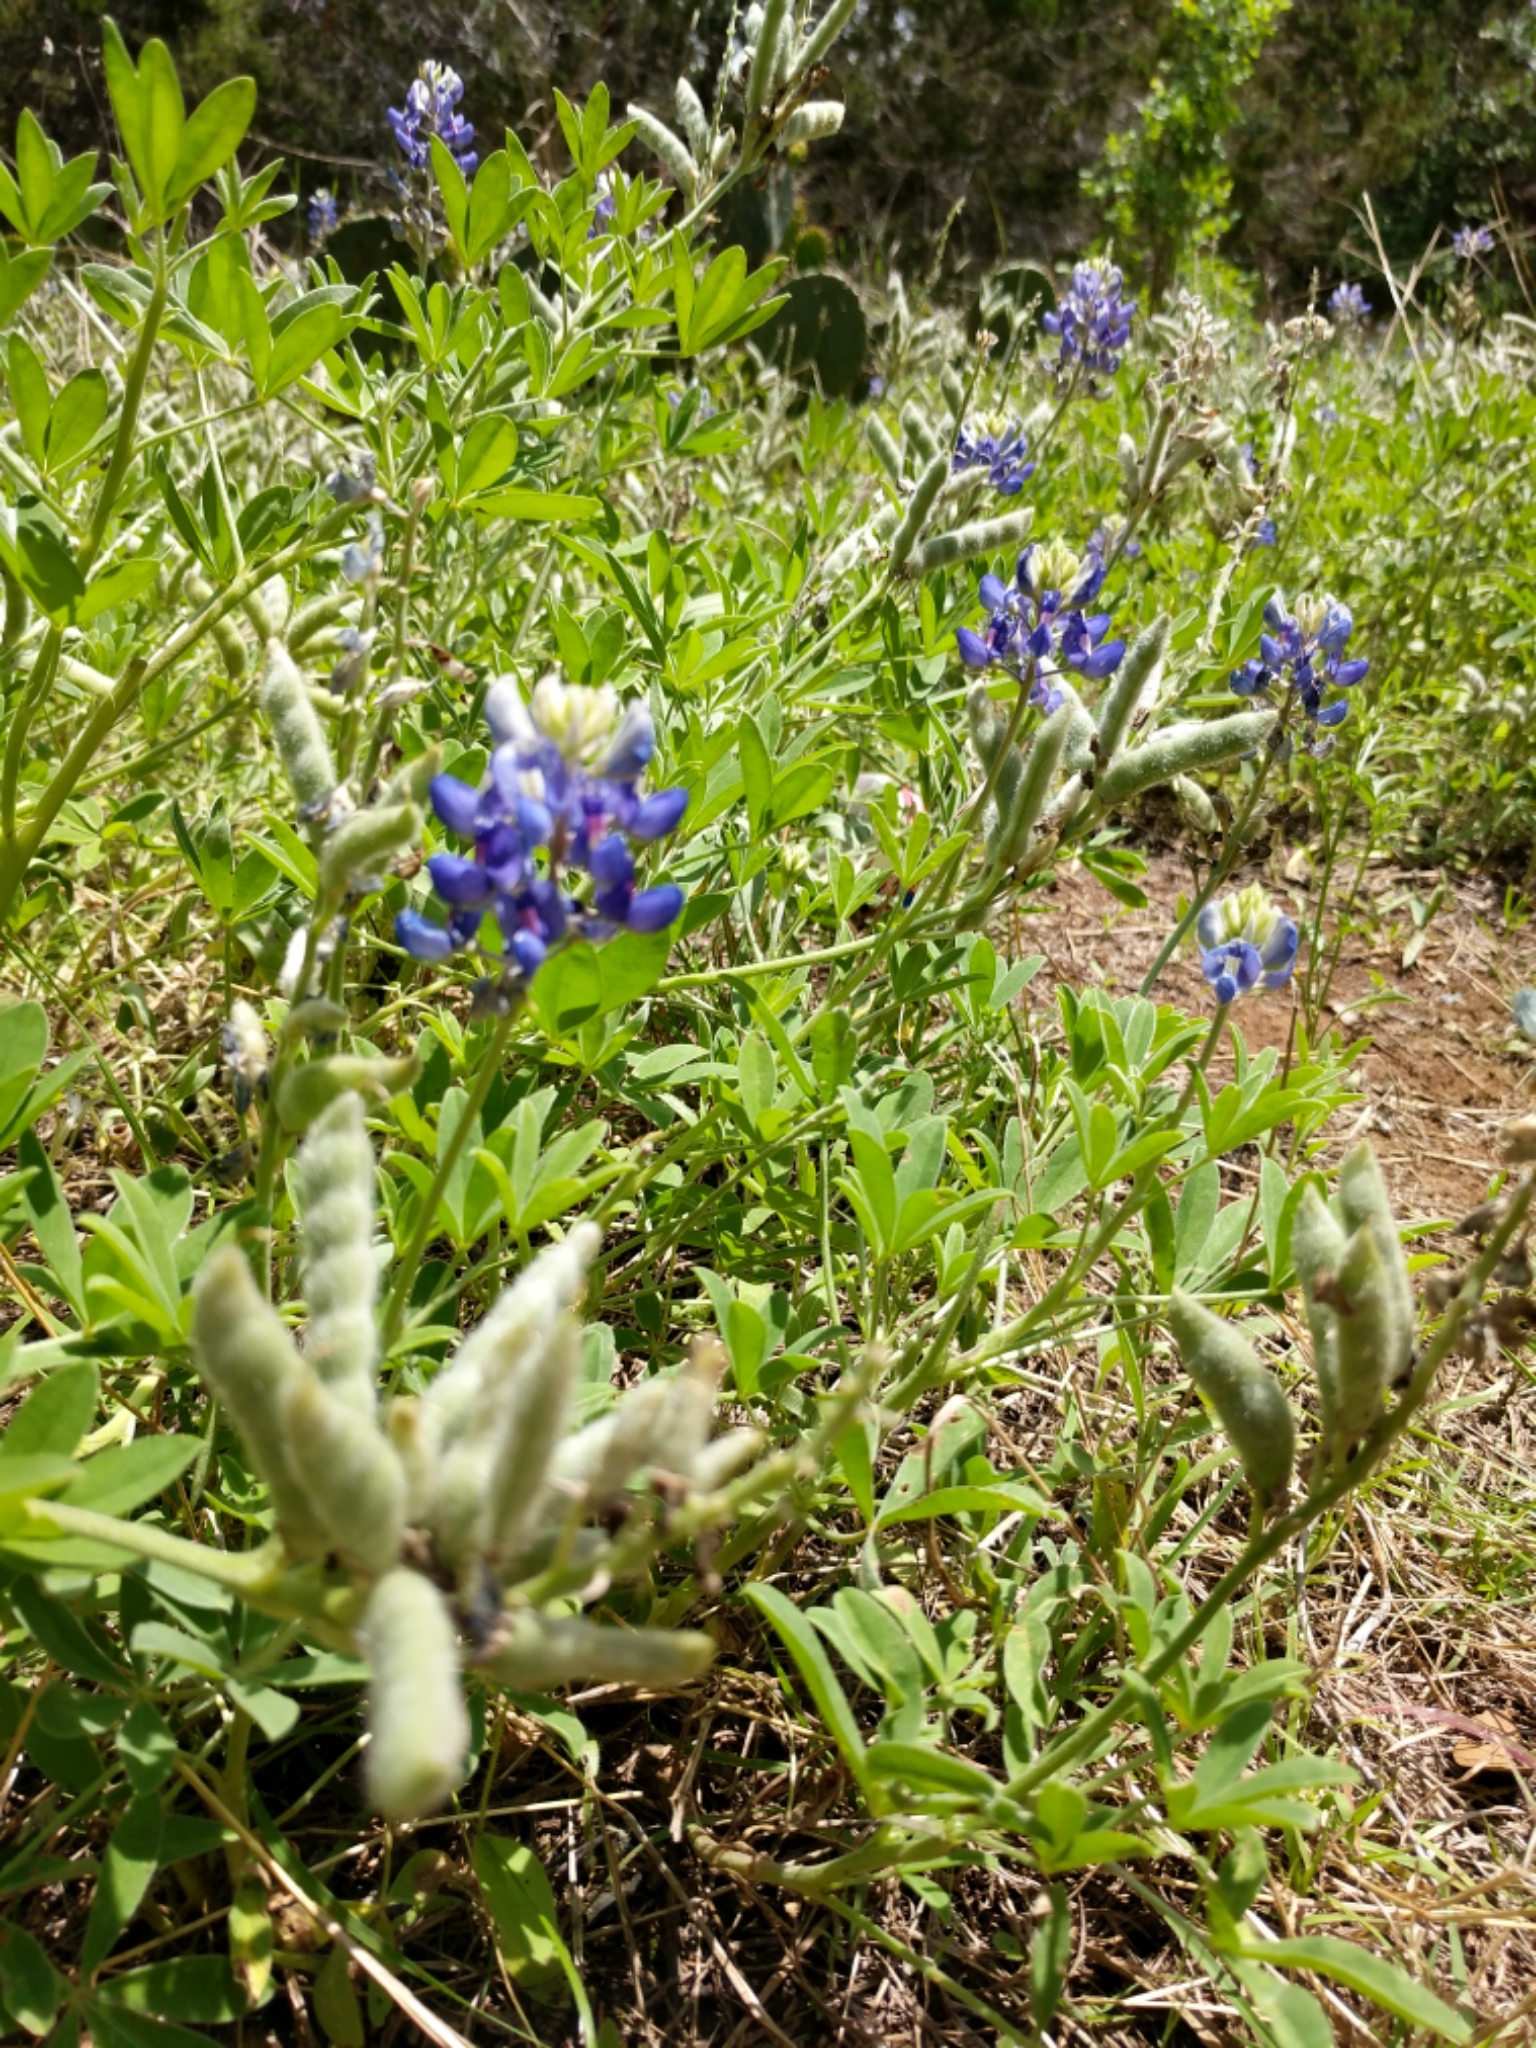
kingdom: Plantae
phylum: Tracheophyta
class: Magnoliopsida
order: Fabales
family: Fabaceae
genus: Lupinus
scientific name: Lupinus texensis
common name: Texas bluebonnet
